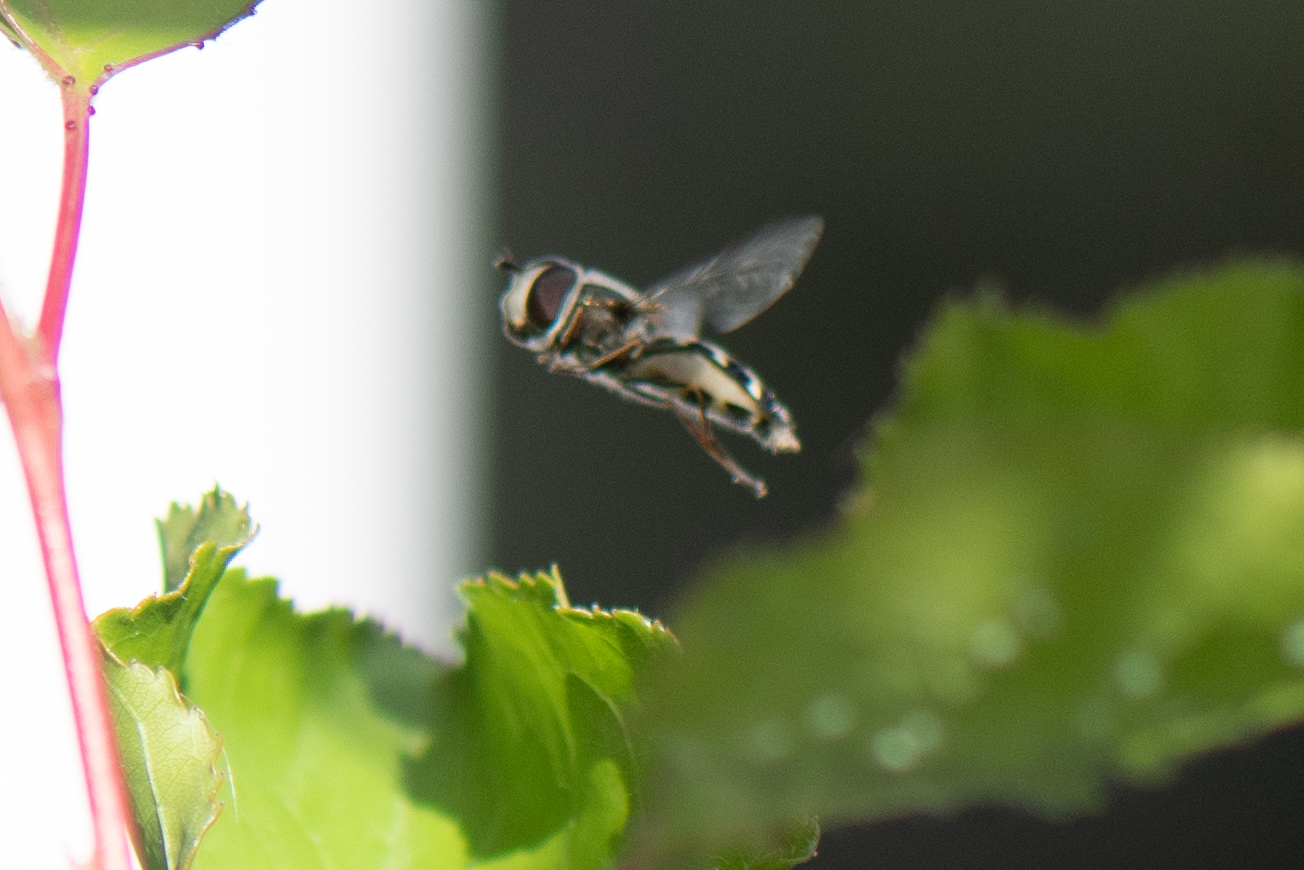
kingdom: Animalia
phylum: Arthropoda
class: Insecta
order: Diptera
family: Syrphidae
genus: Scaeva
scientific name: Scaeva affinis
